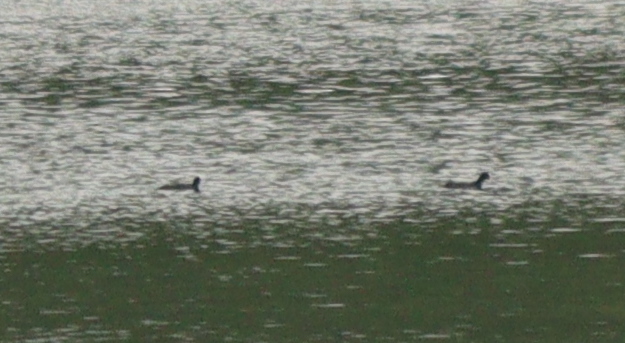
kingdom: Animalia
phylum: Chordata
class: Aves
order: Gruiformes
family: Rallidae
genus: Fulica
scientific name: Fulica atra
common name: Eurasian coot
